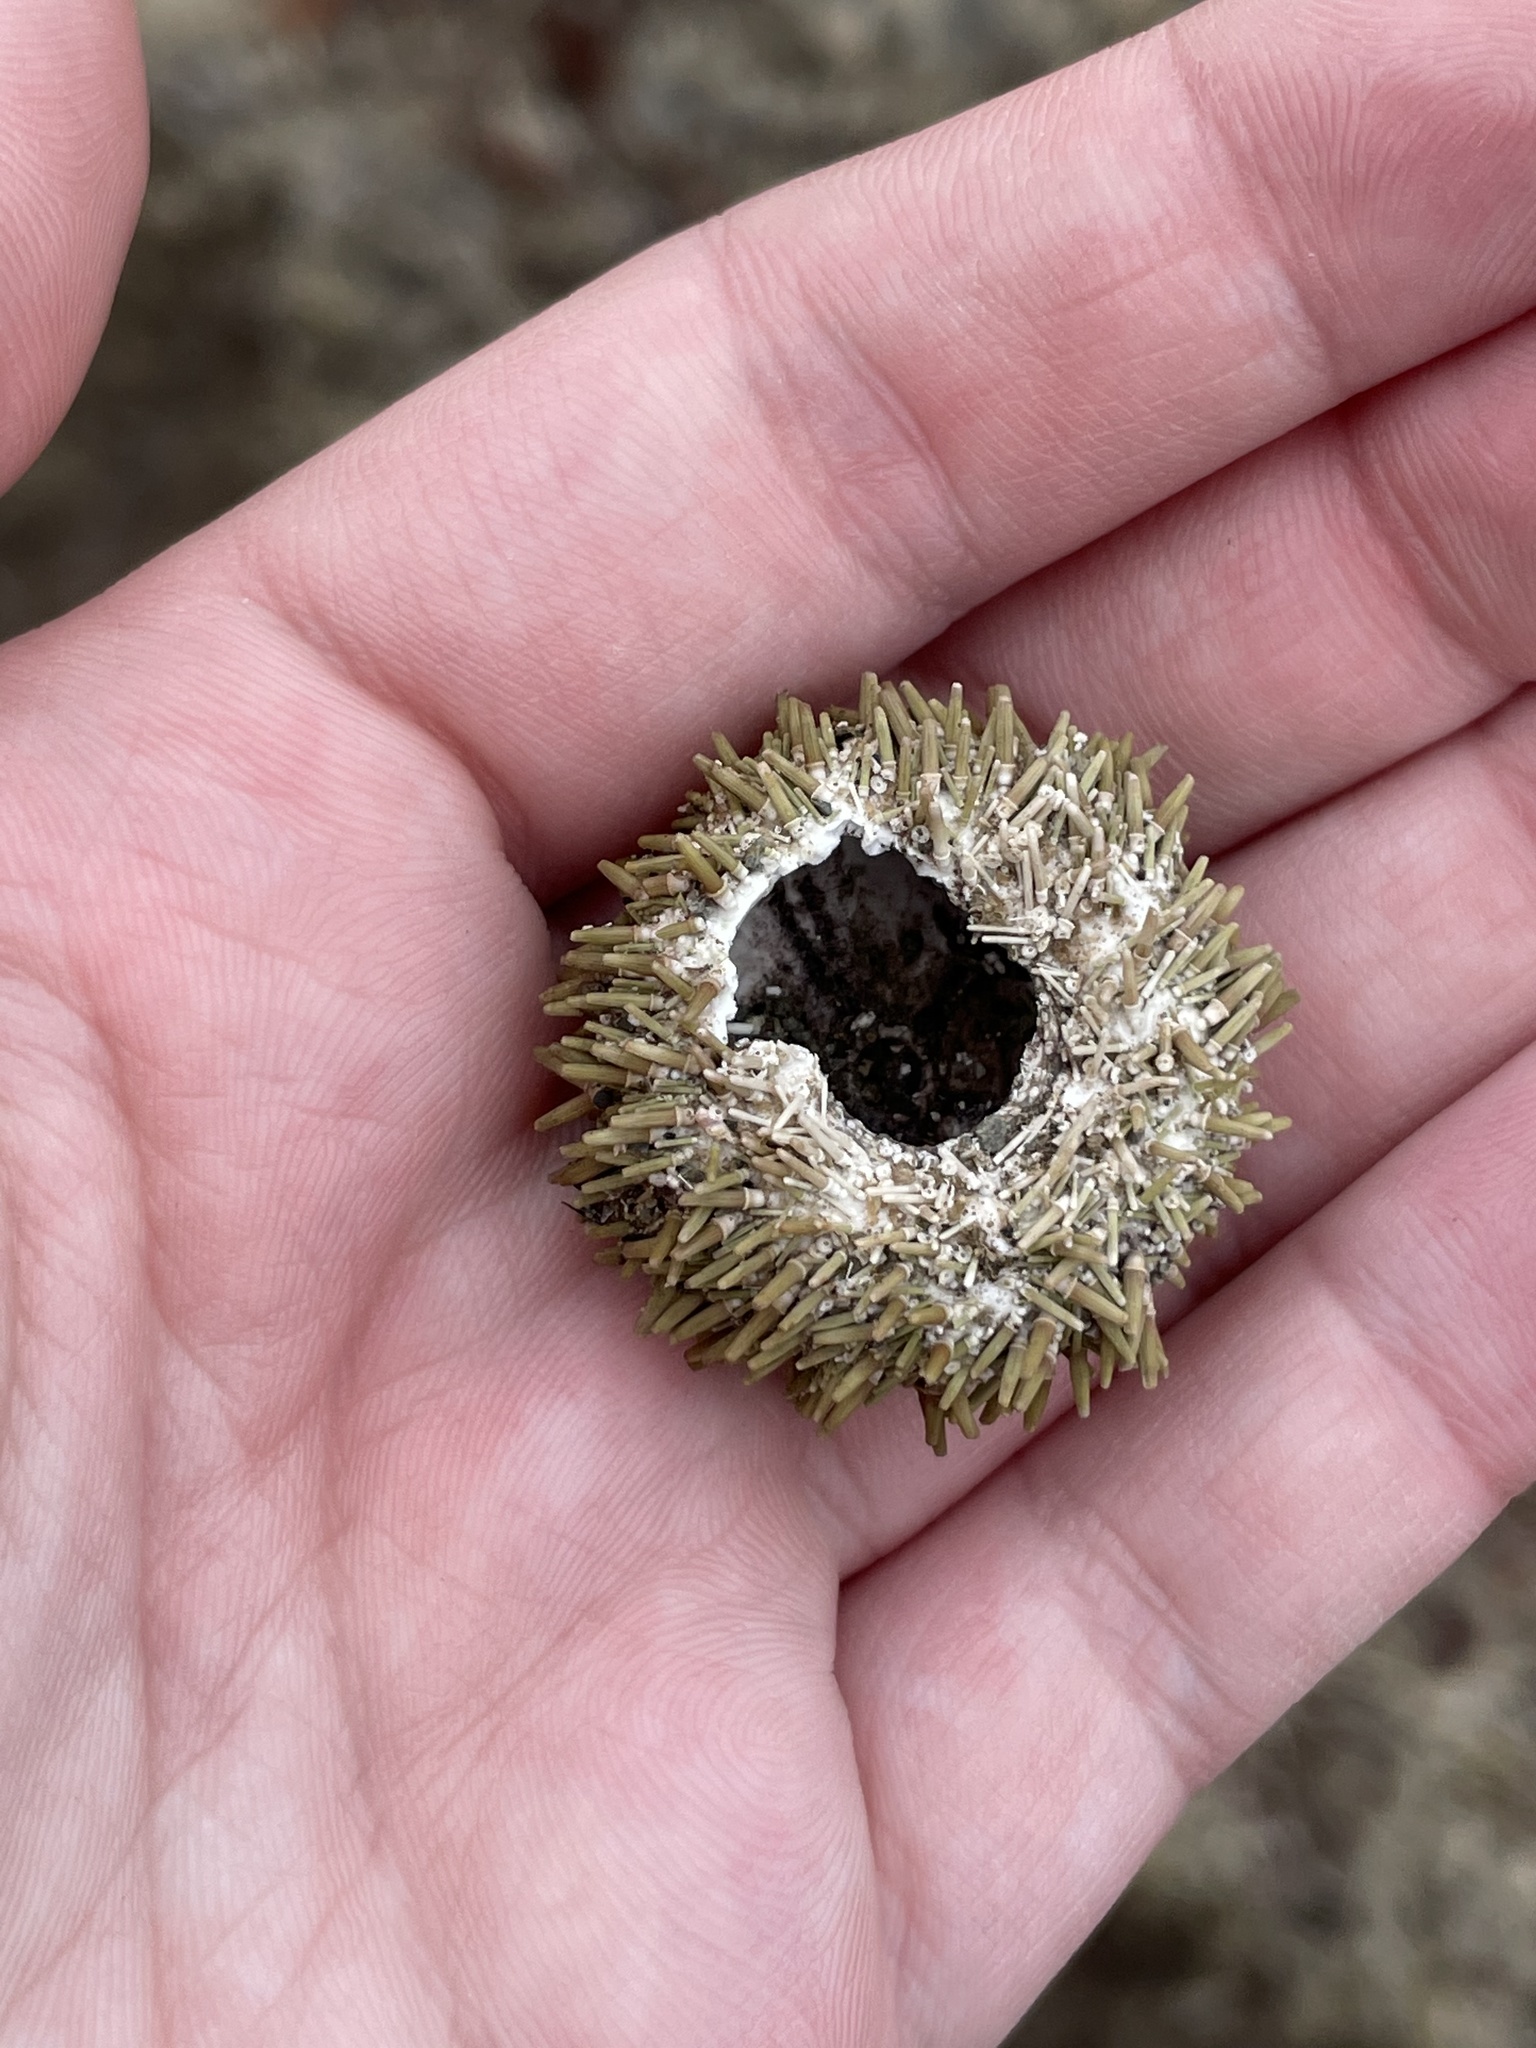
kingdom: Animalia
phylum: Echinodermata
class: Echinoidea
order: Camarodonta
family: Strongylocentrotidae
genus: Strongylocentrotus
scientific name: Strongylocentrotus droebachiensis
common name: Northern sea urchin
